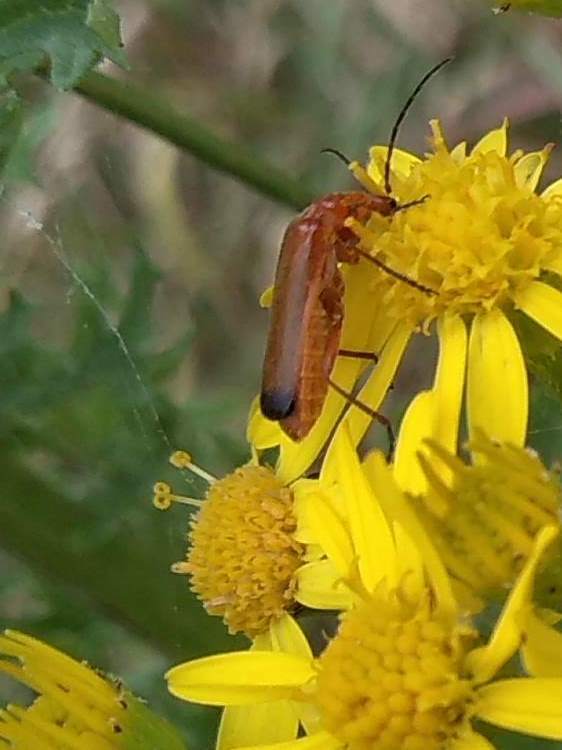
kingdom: Animalia
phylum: Arthropoda
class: Insecta
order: Coleoptera
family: Cantharidae
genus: Rhagonycha
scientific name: Rhagonycha fulva
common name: Common red soldier beetle
